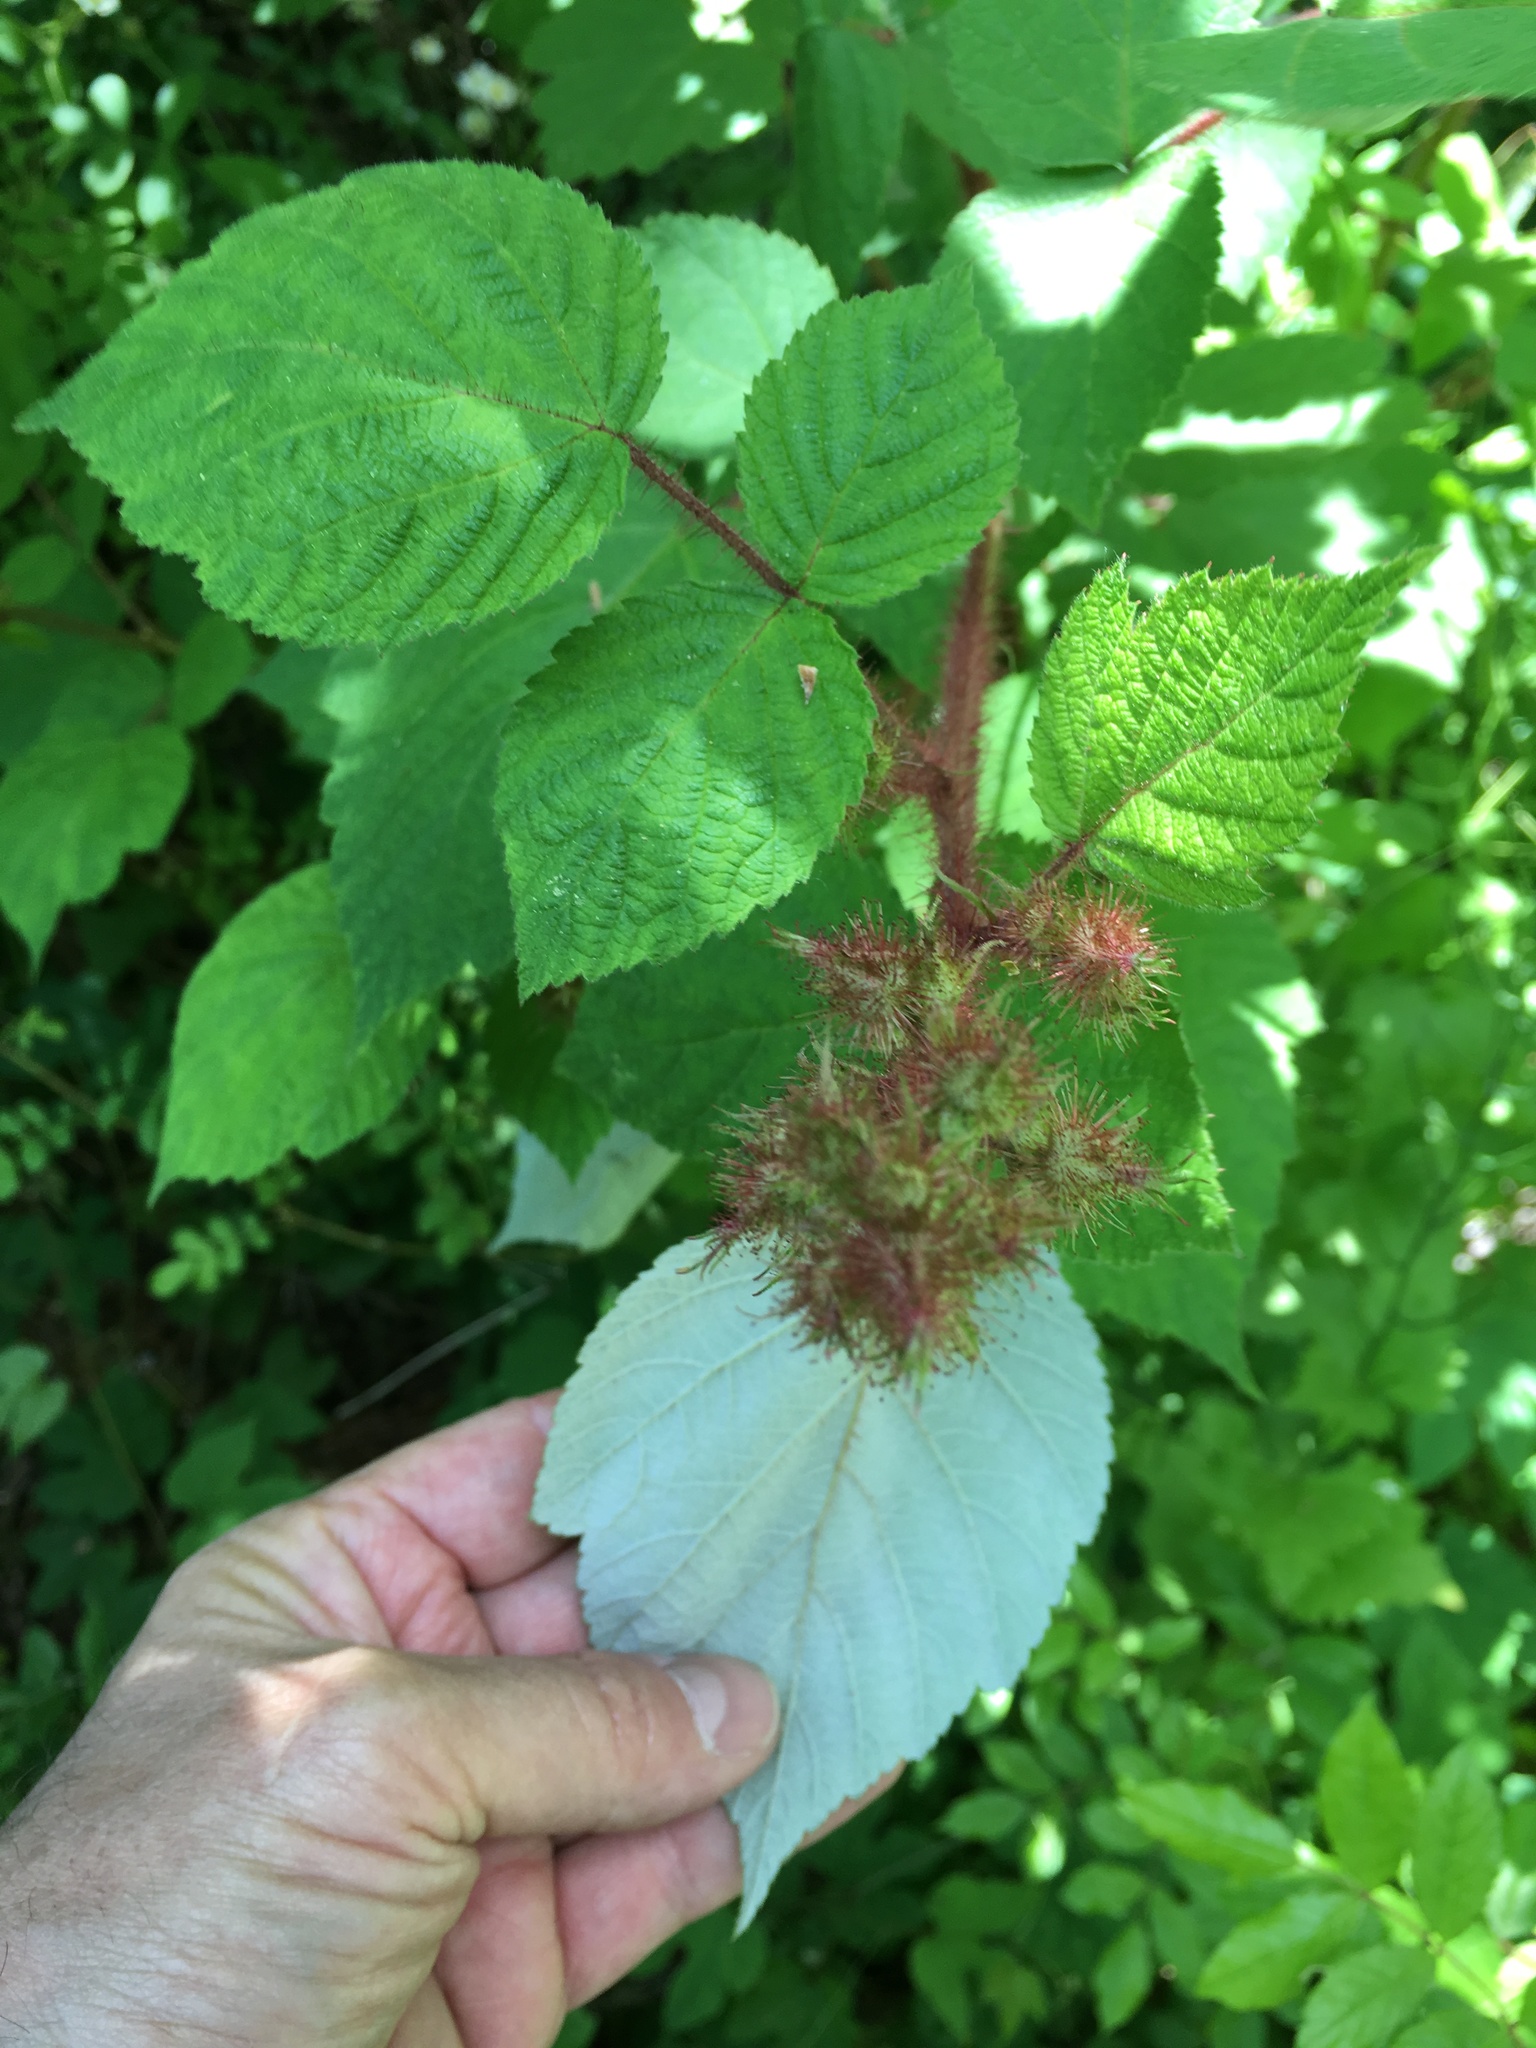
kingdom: Plantae
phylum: Tracheophyta
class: Magnoliopsida
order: Rosales
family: Rosaceae
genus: Rubus
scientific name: Rubus phoenicolasius
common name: Japanese wineberry
